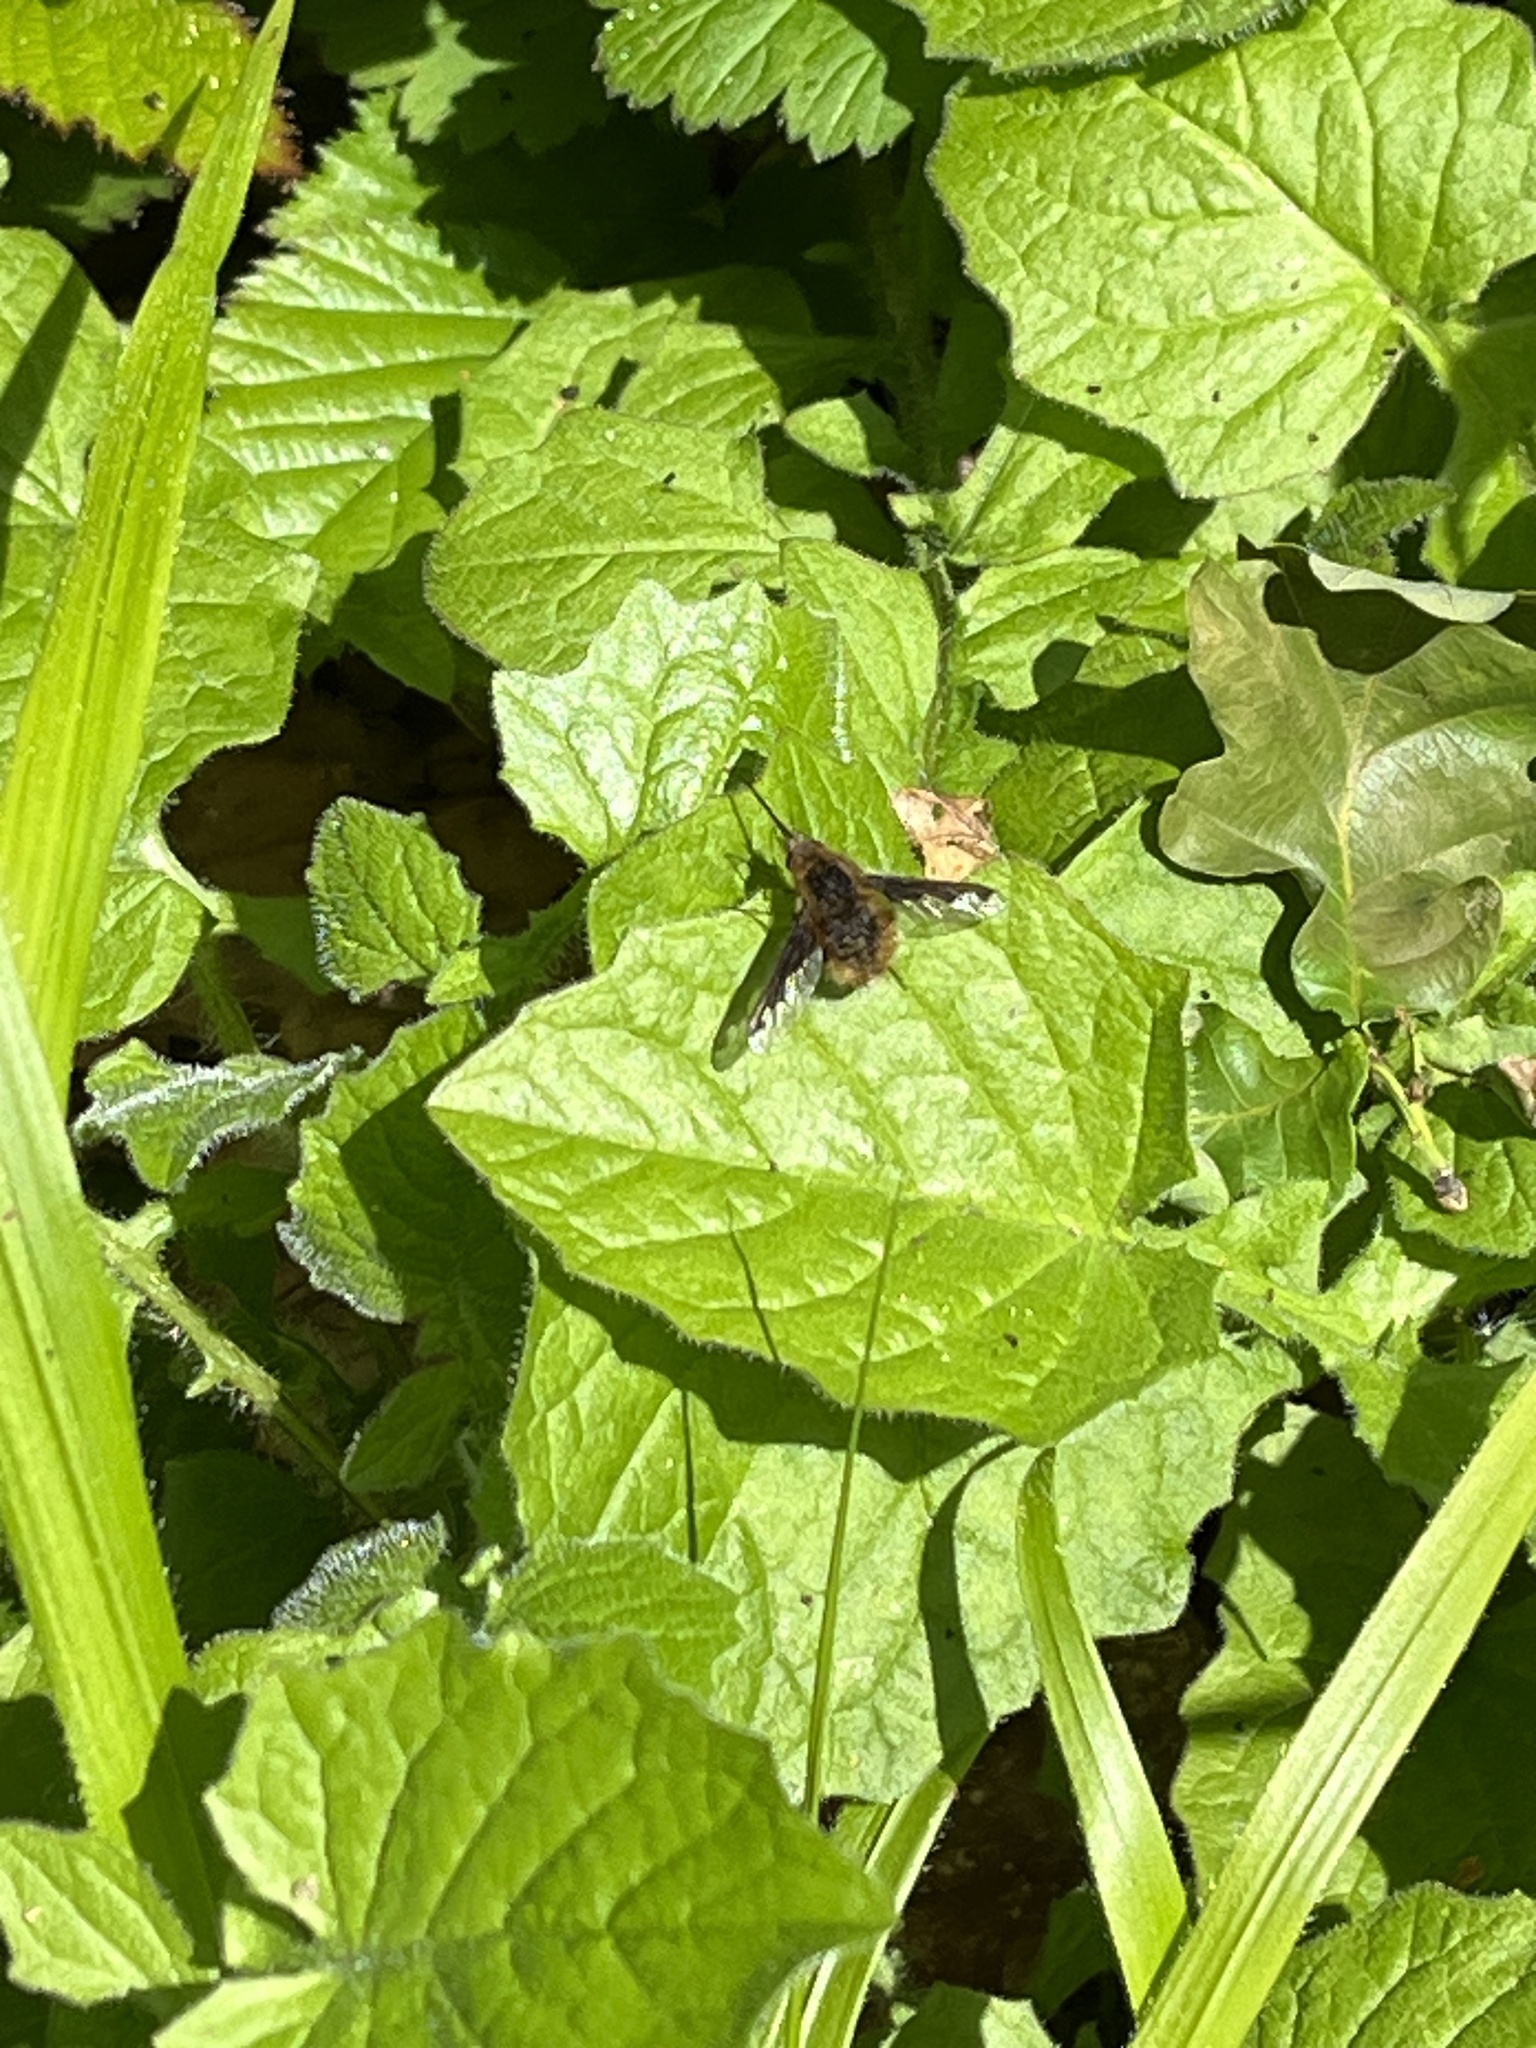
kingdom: Animalia
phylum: Arthropoda
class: Insecta
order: Diptera
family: Bombyliidae
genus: Bombylius
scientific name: Bombylius major
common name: Bee fly
